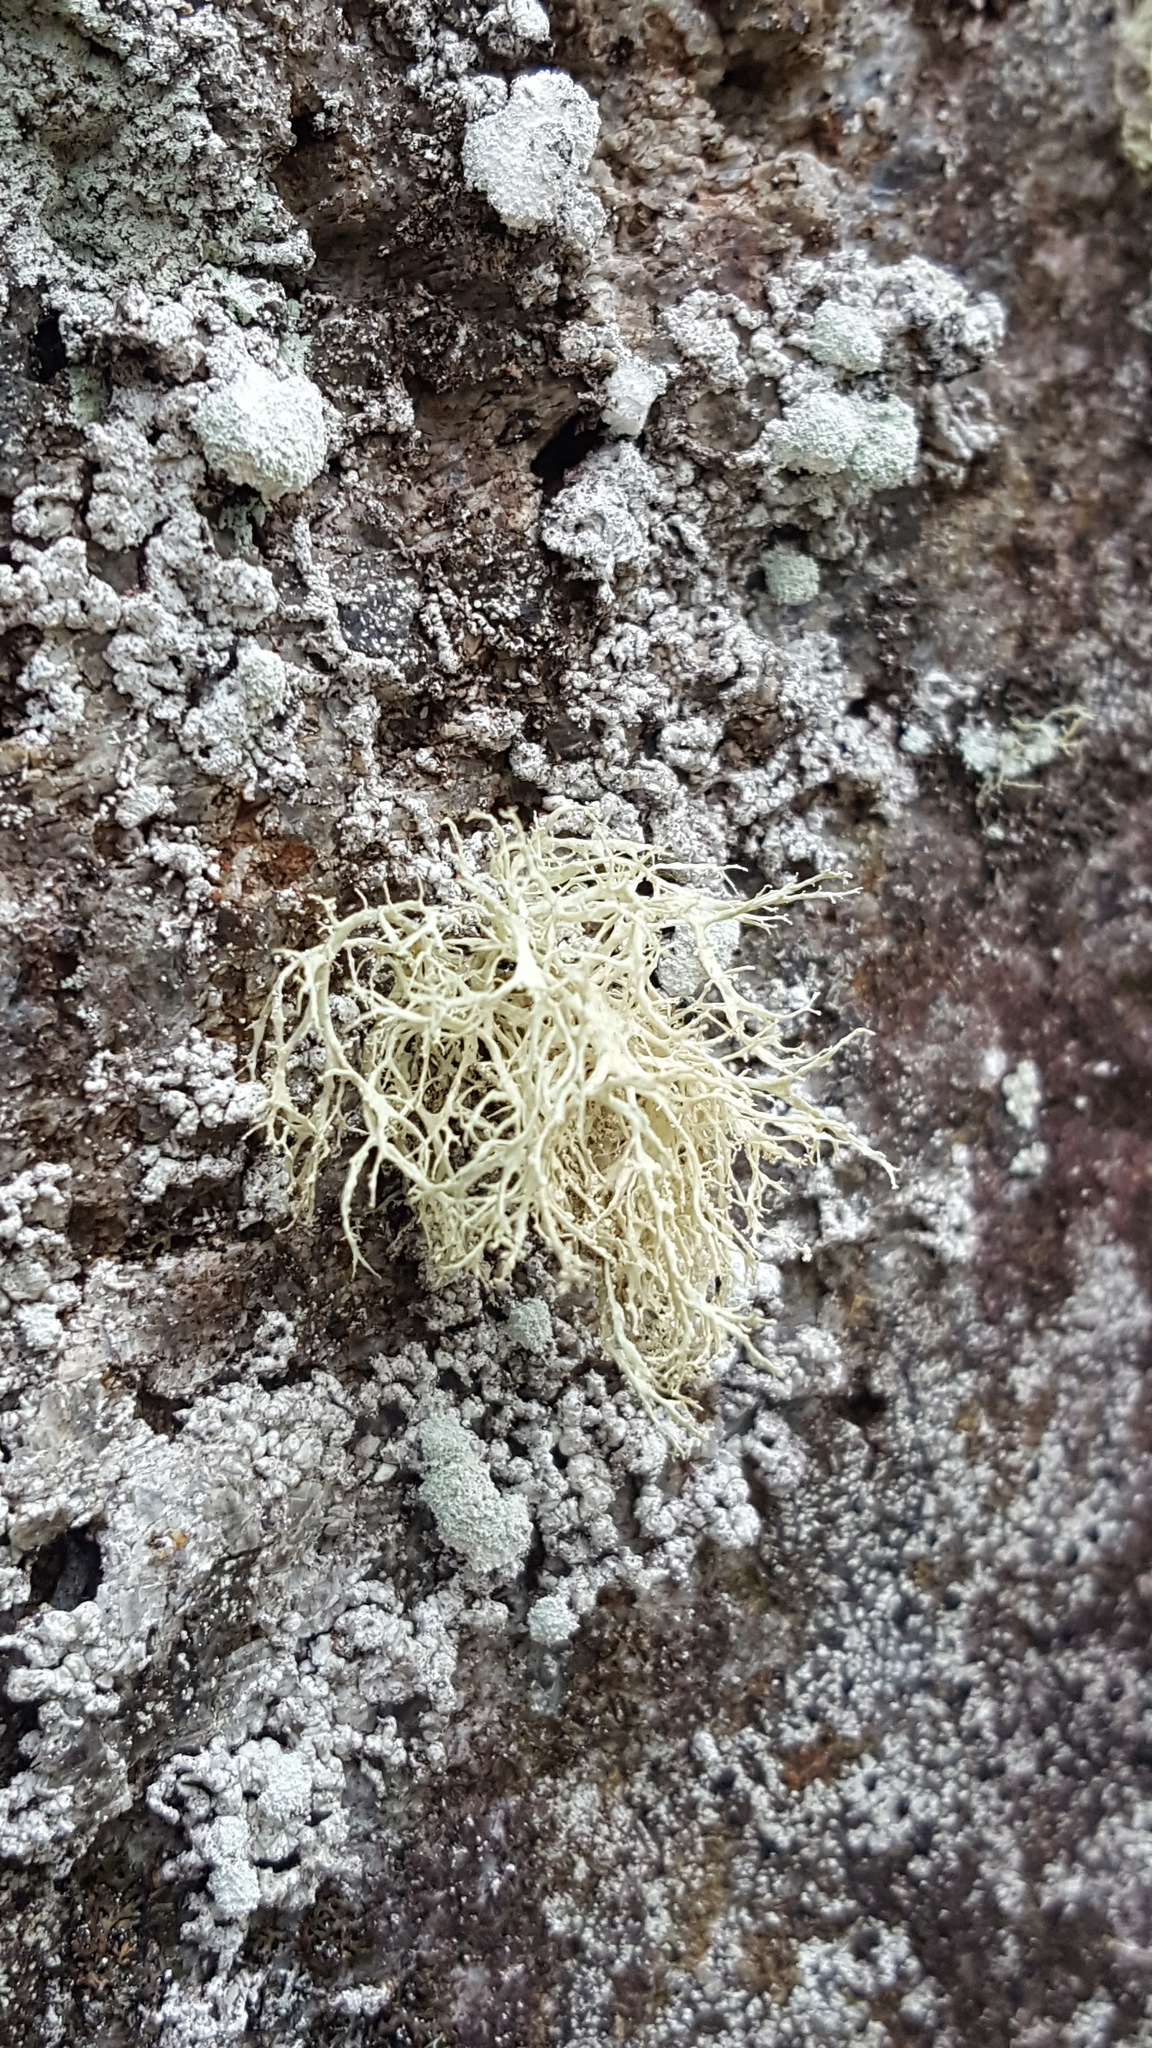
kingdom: Fungi
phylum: Ascomycota
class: Lecanoromycetes
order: Lecanorales
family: Ramalinaceae
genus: Ramalina
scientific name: Ramalina intermedia
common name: Rock bushy lichen
